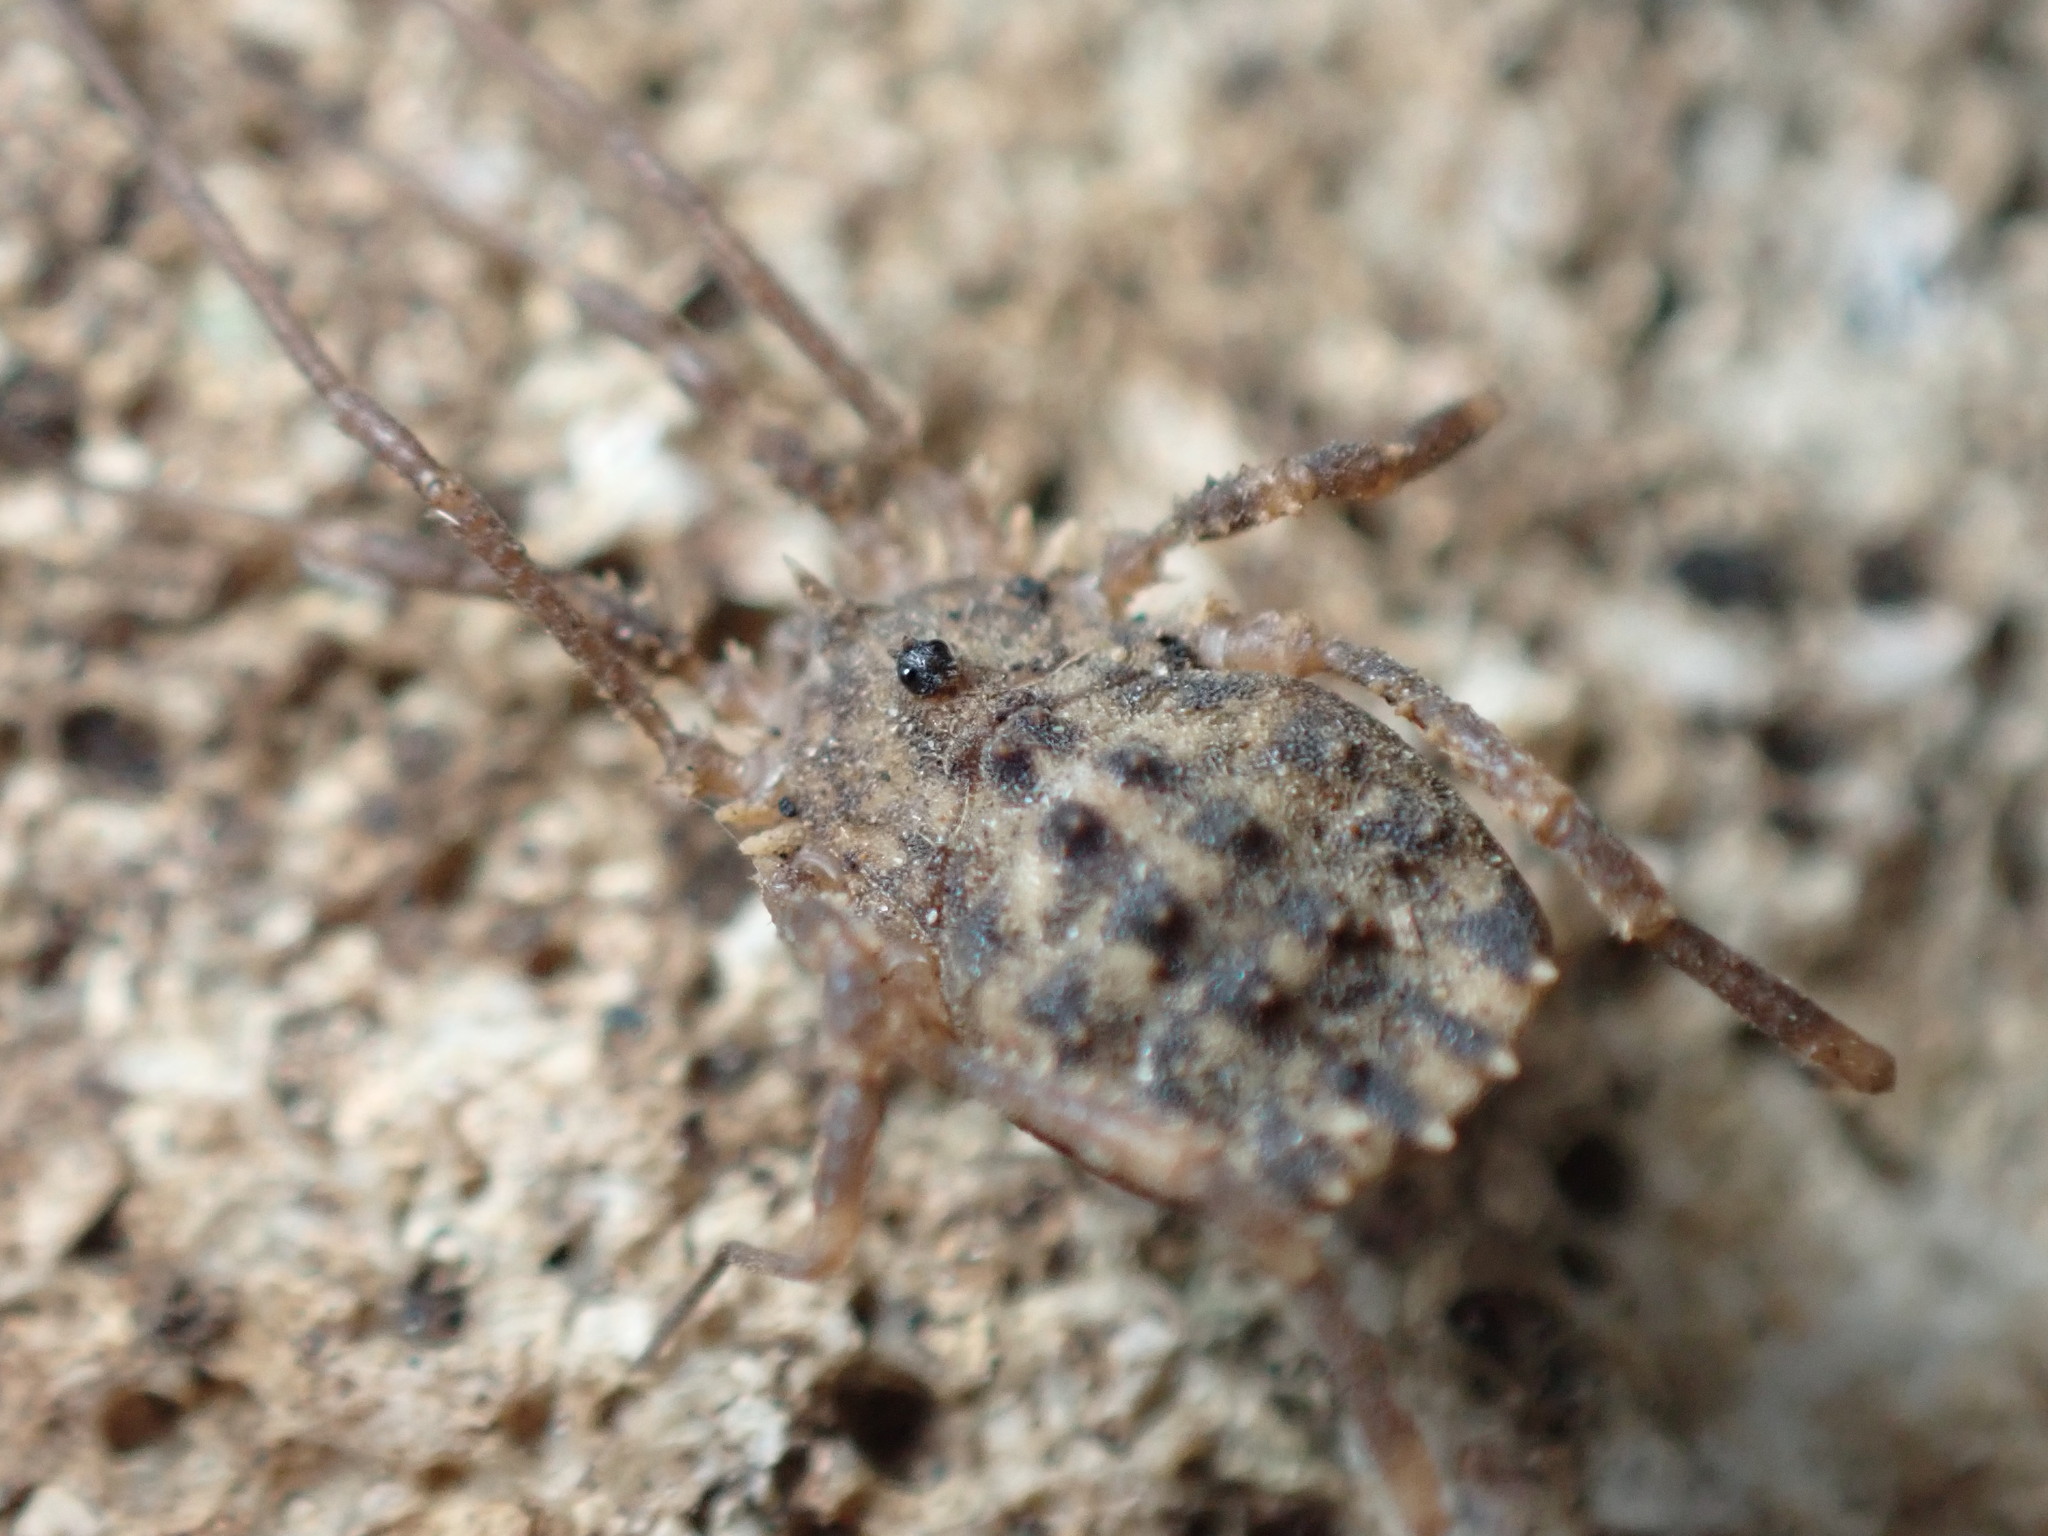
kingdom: Animalia
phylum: Arthropoda
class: Arachnida
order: Opiliones
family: Sclerosomatidae
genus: Homalenotus
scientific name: Homalenotus quadridentatus
